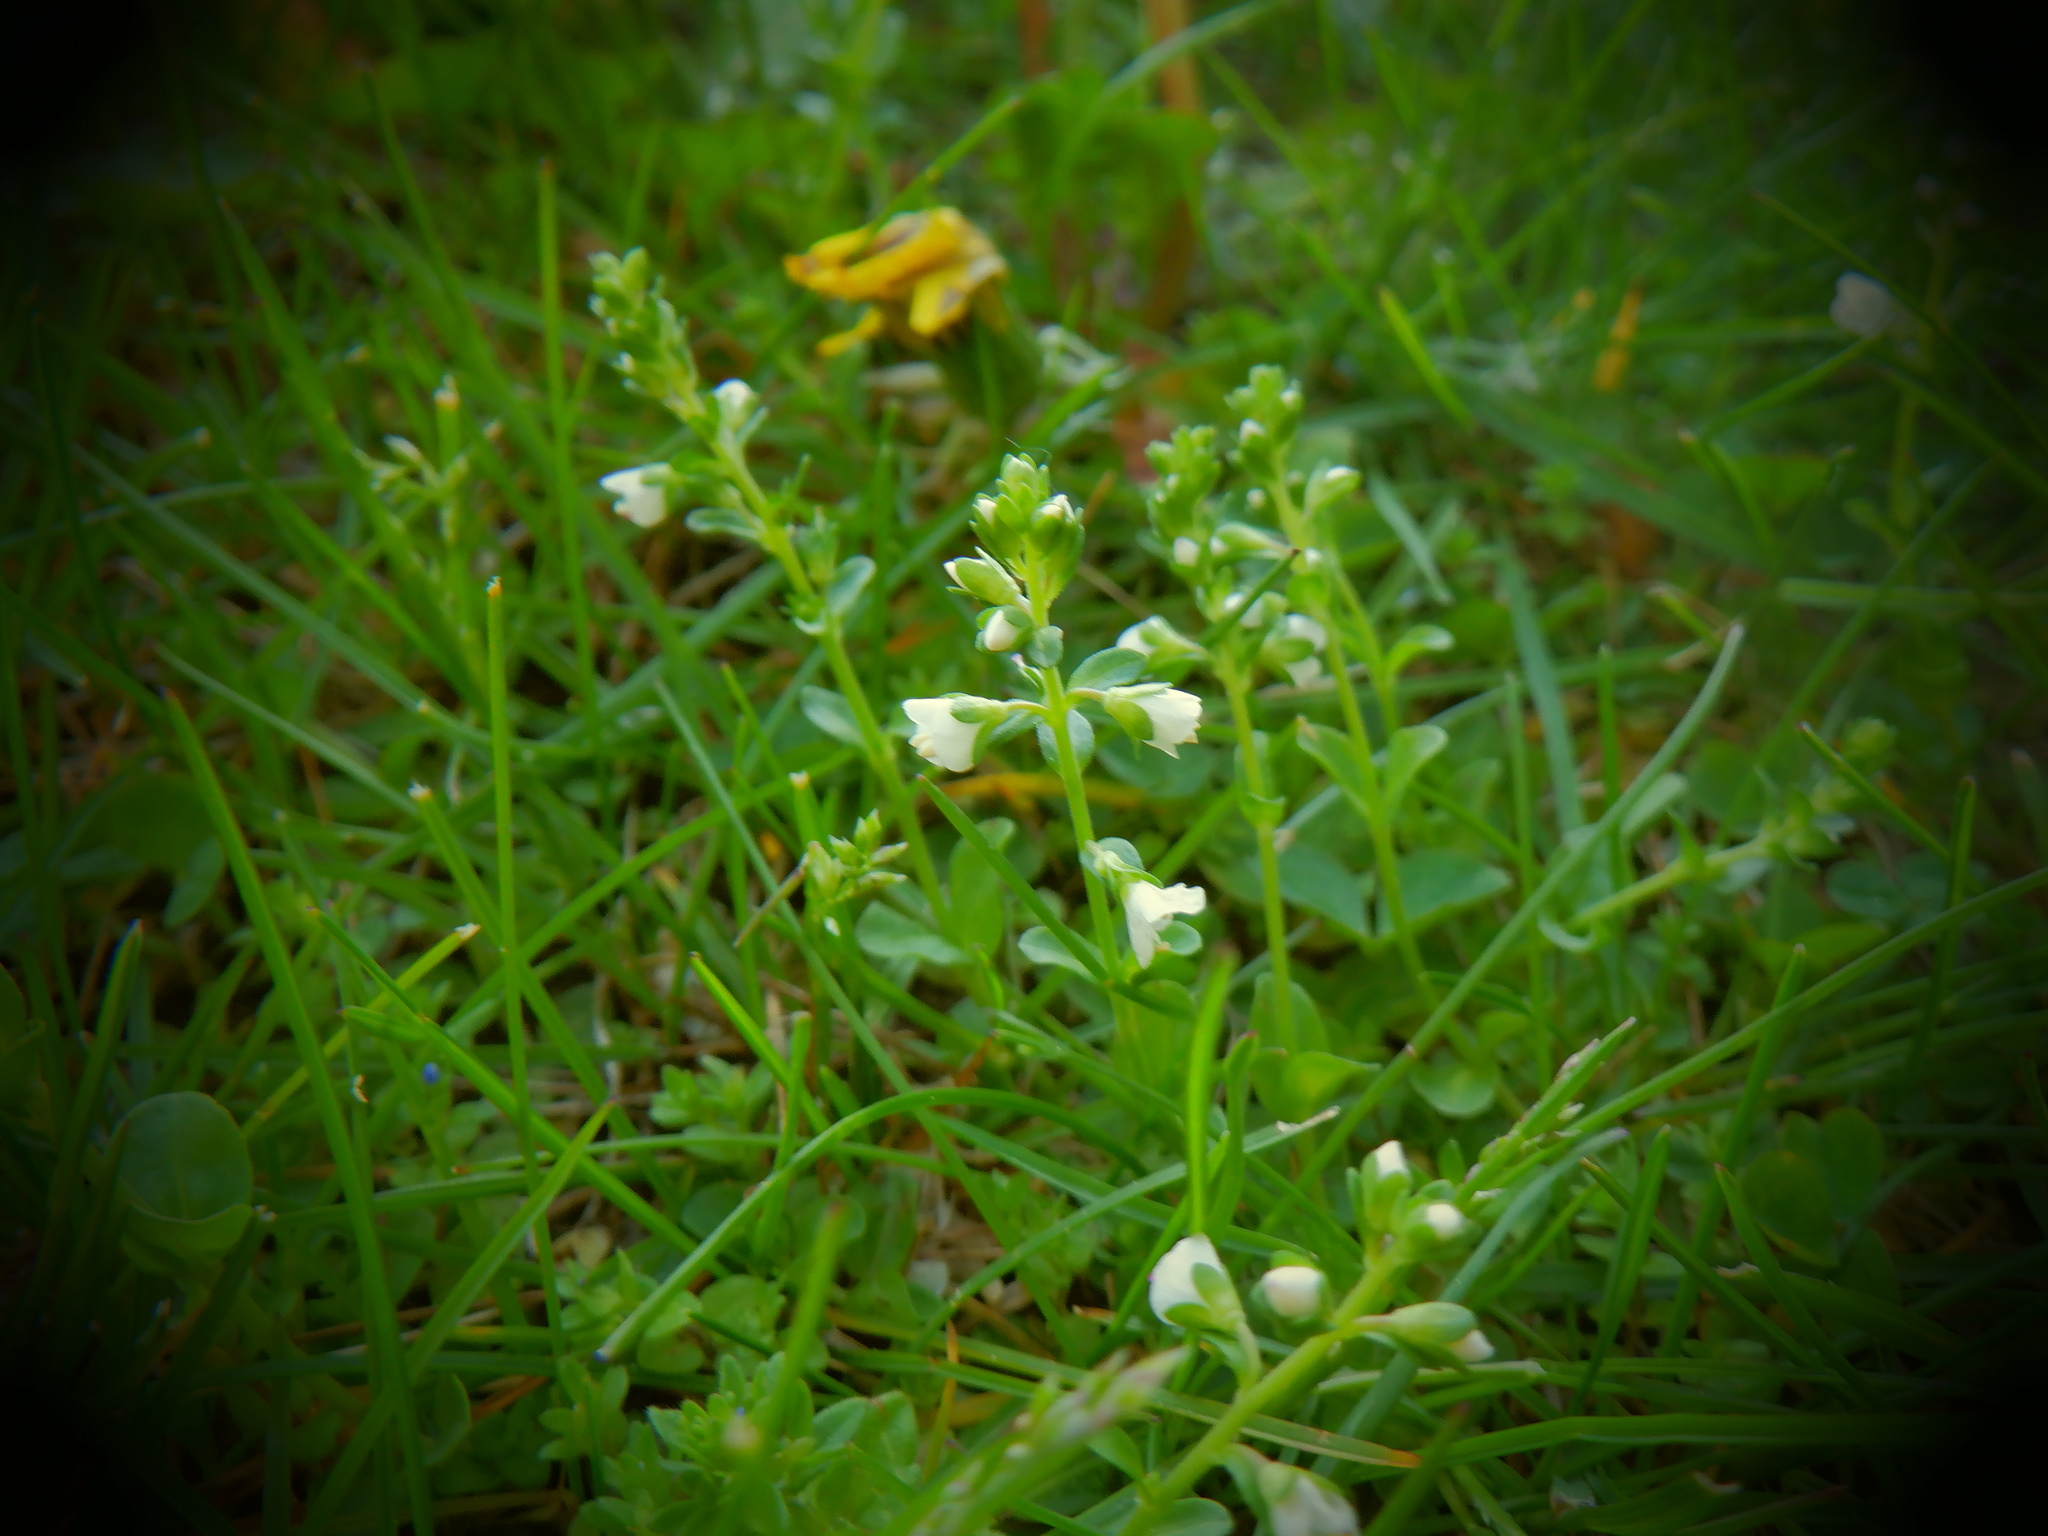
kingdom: Plantae
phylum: Tracheophyta
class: Magnoliopsida
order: Lamiales
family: Plantaginaceae
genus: Veronica
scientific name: Veronica serpyllifolia
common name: Thyme-leaved speedwell
